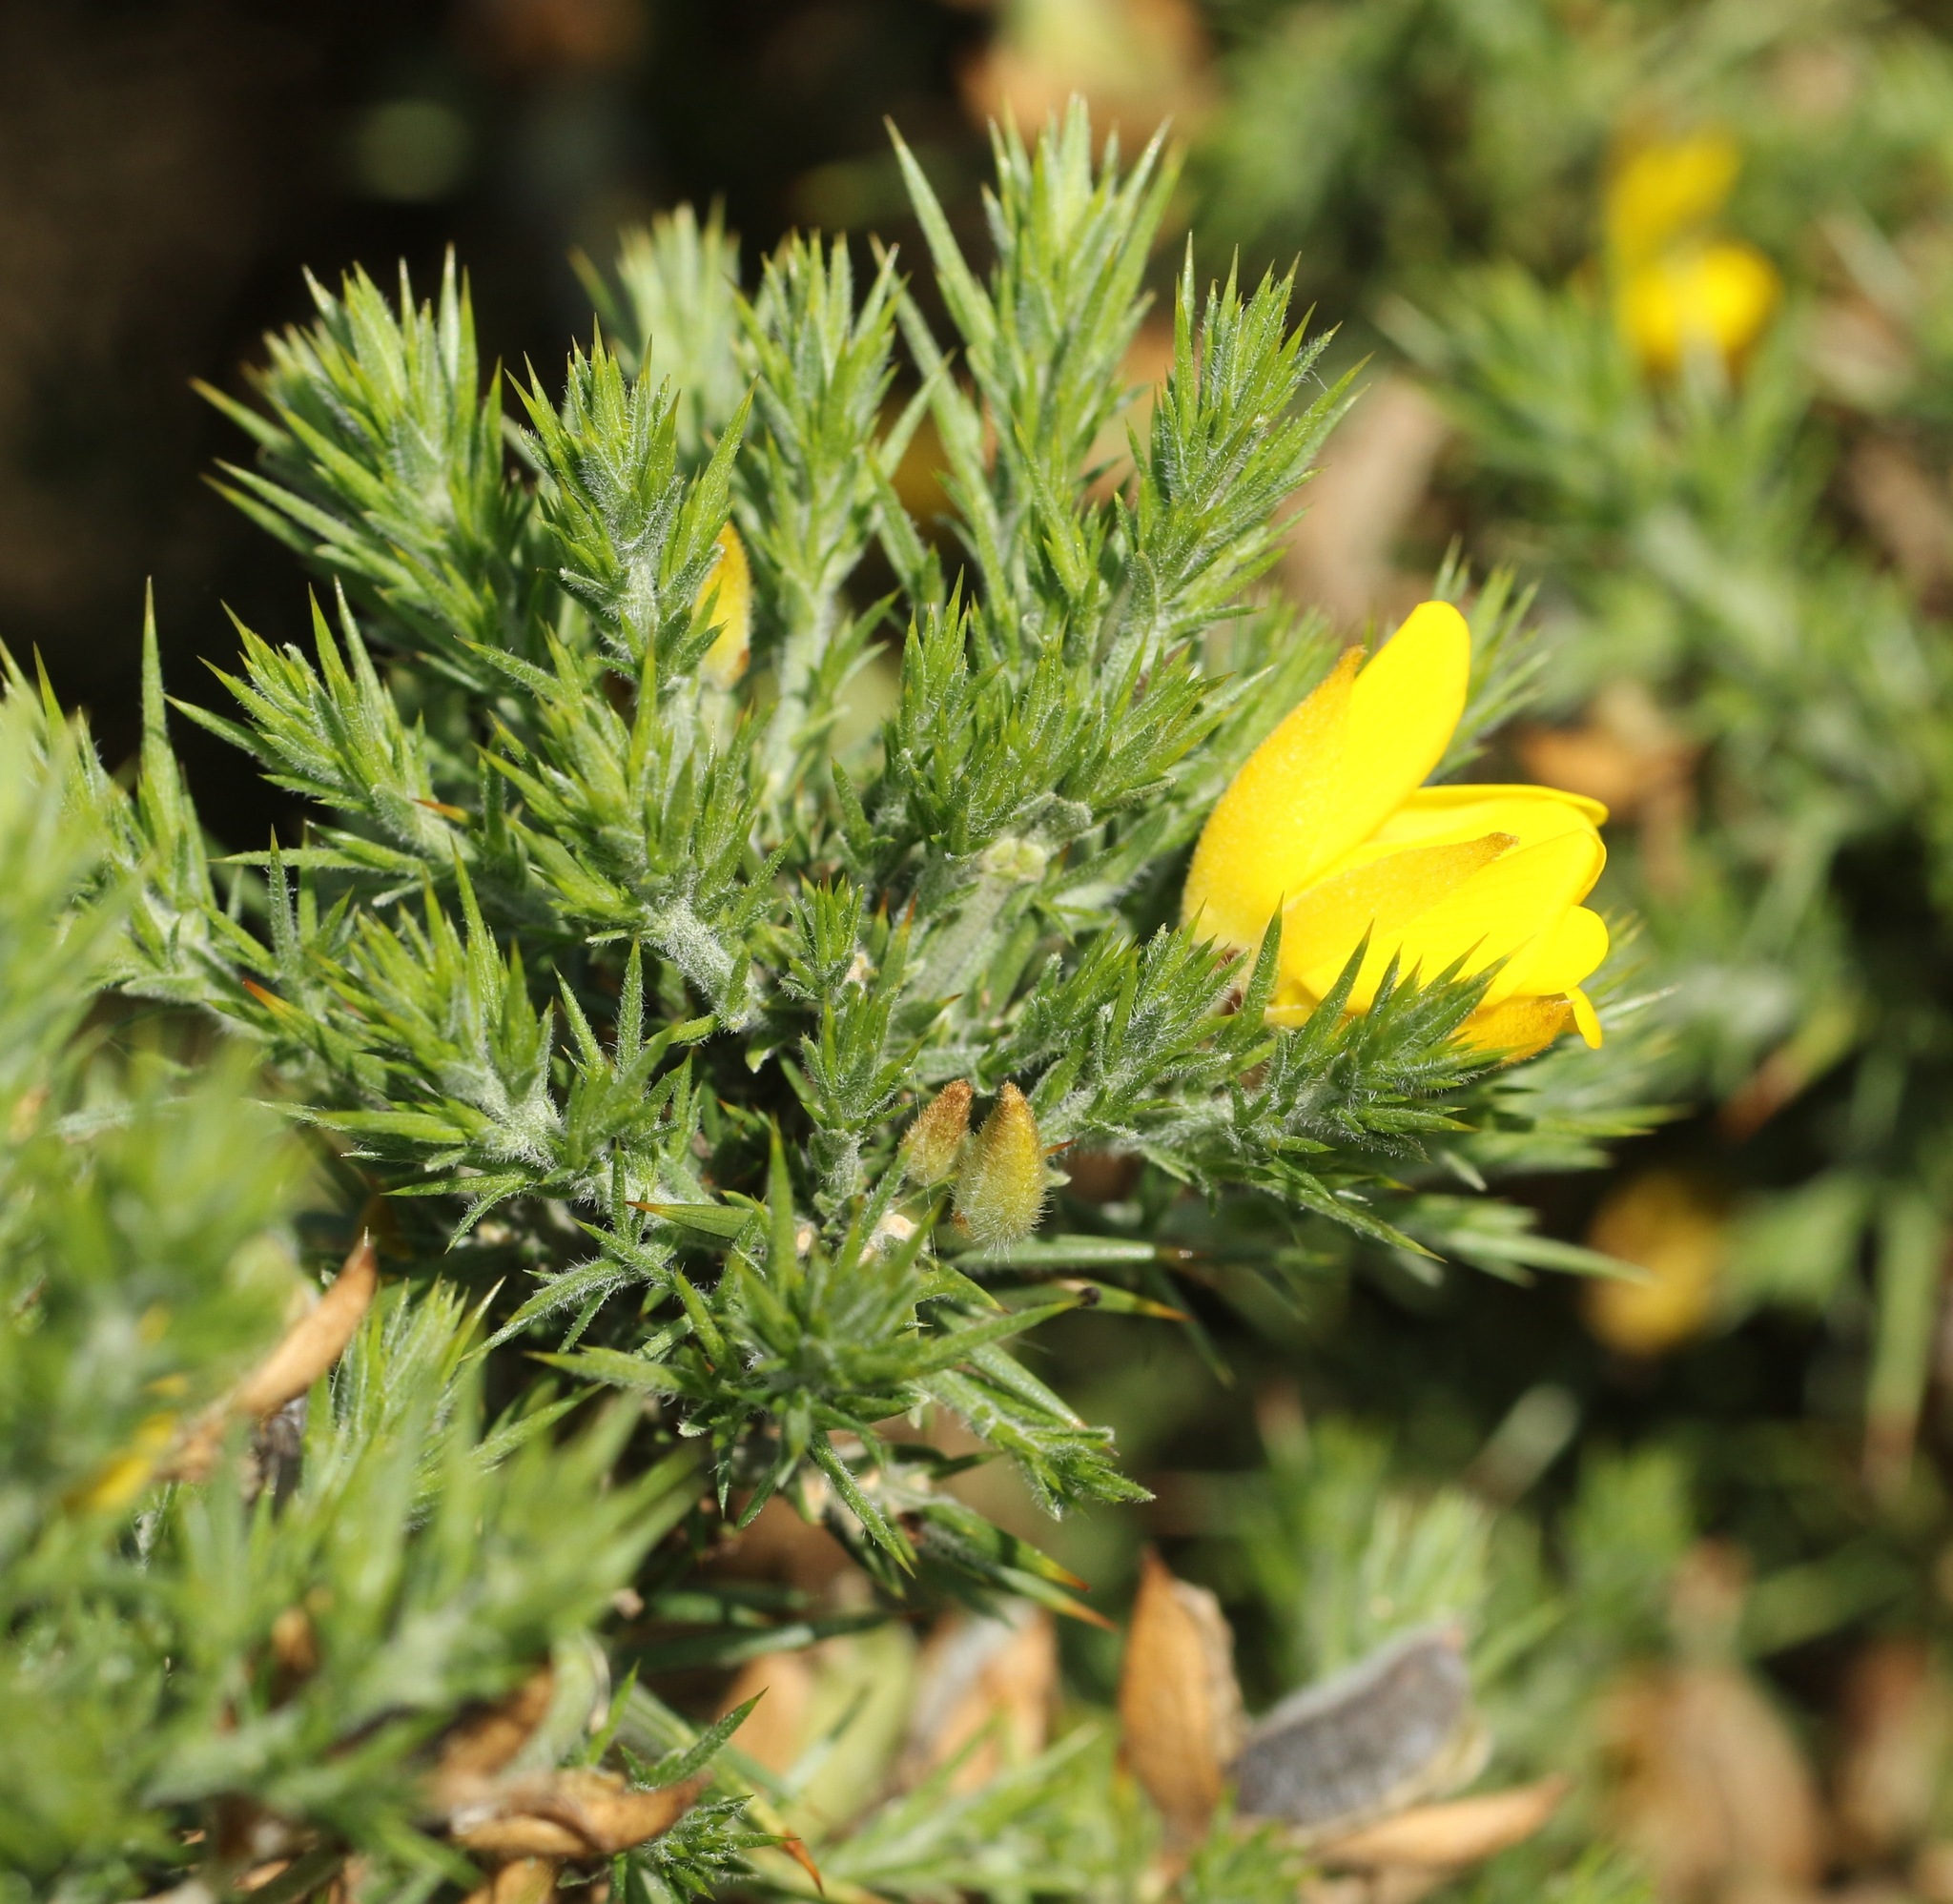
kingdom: Plantae
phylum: Tracheophyta
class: Magnoliopsida
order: Fabales
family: Fabaceae
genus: Ulex
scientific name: Ulex europaeus
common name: Common gorse
